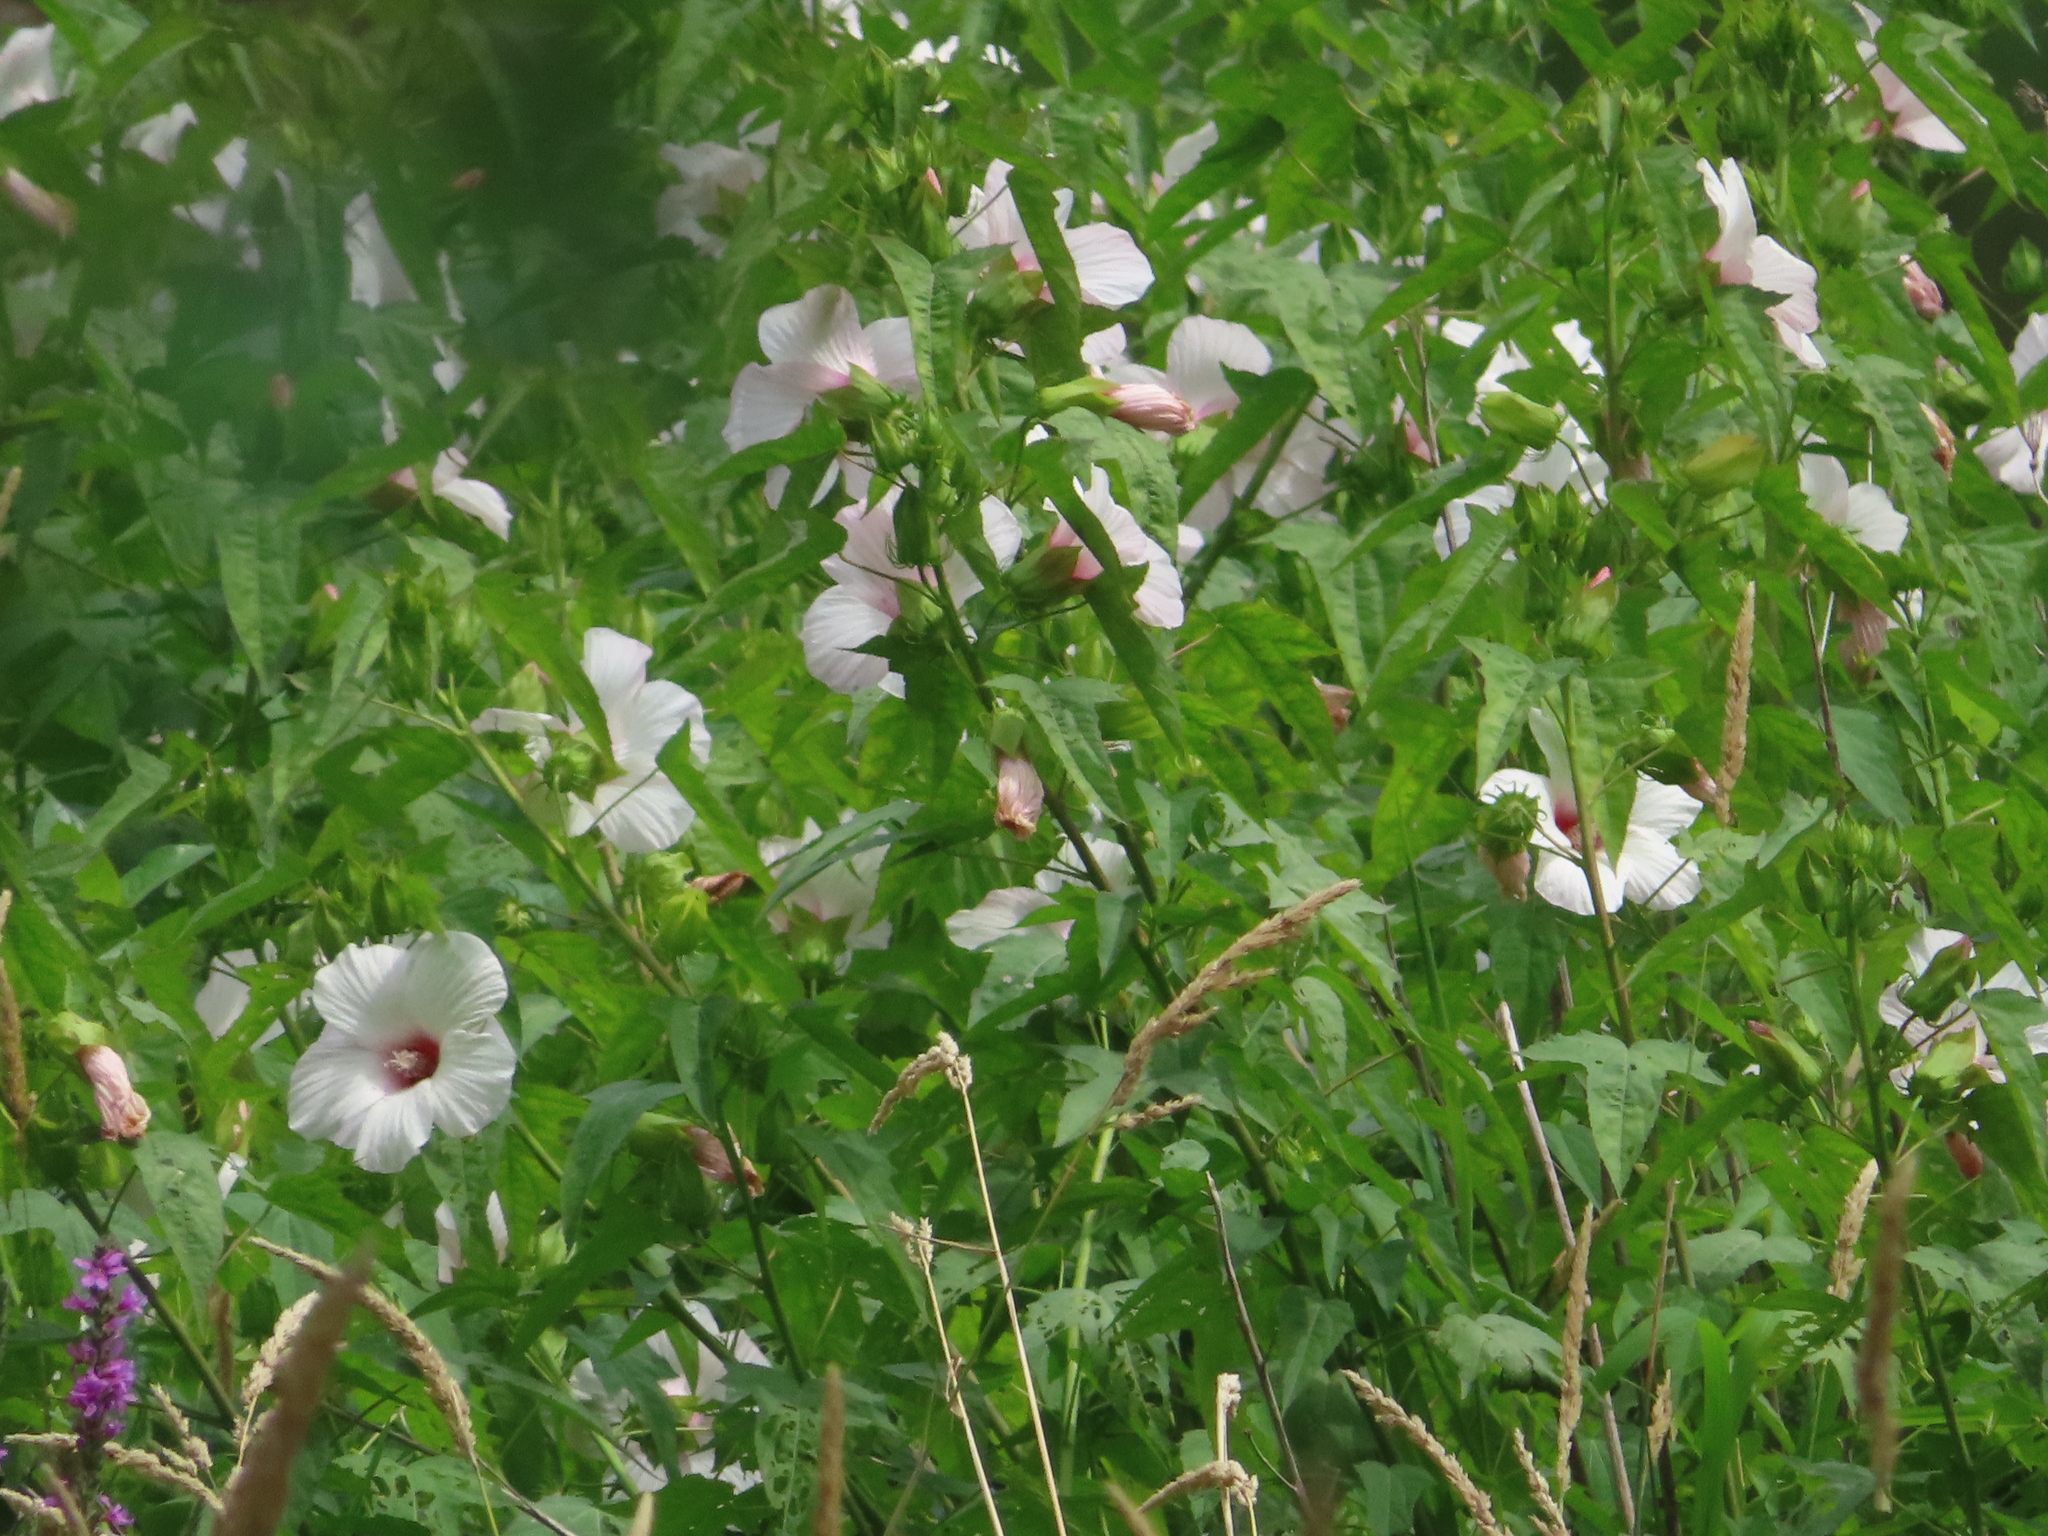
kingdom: Plantae
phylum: Tracheophyta
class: Magnoliopsida
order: Malvales
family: Malvaceae
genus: Hibiscus
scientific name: Hibiscus laevis
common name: Scarlet rose-mallow
